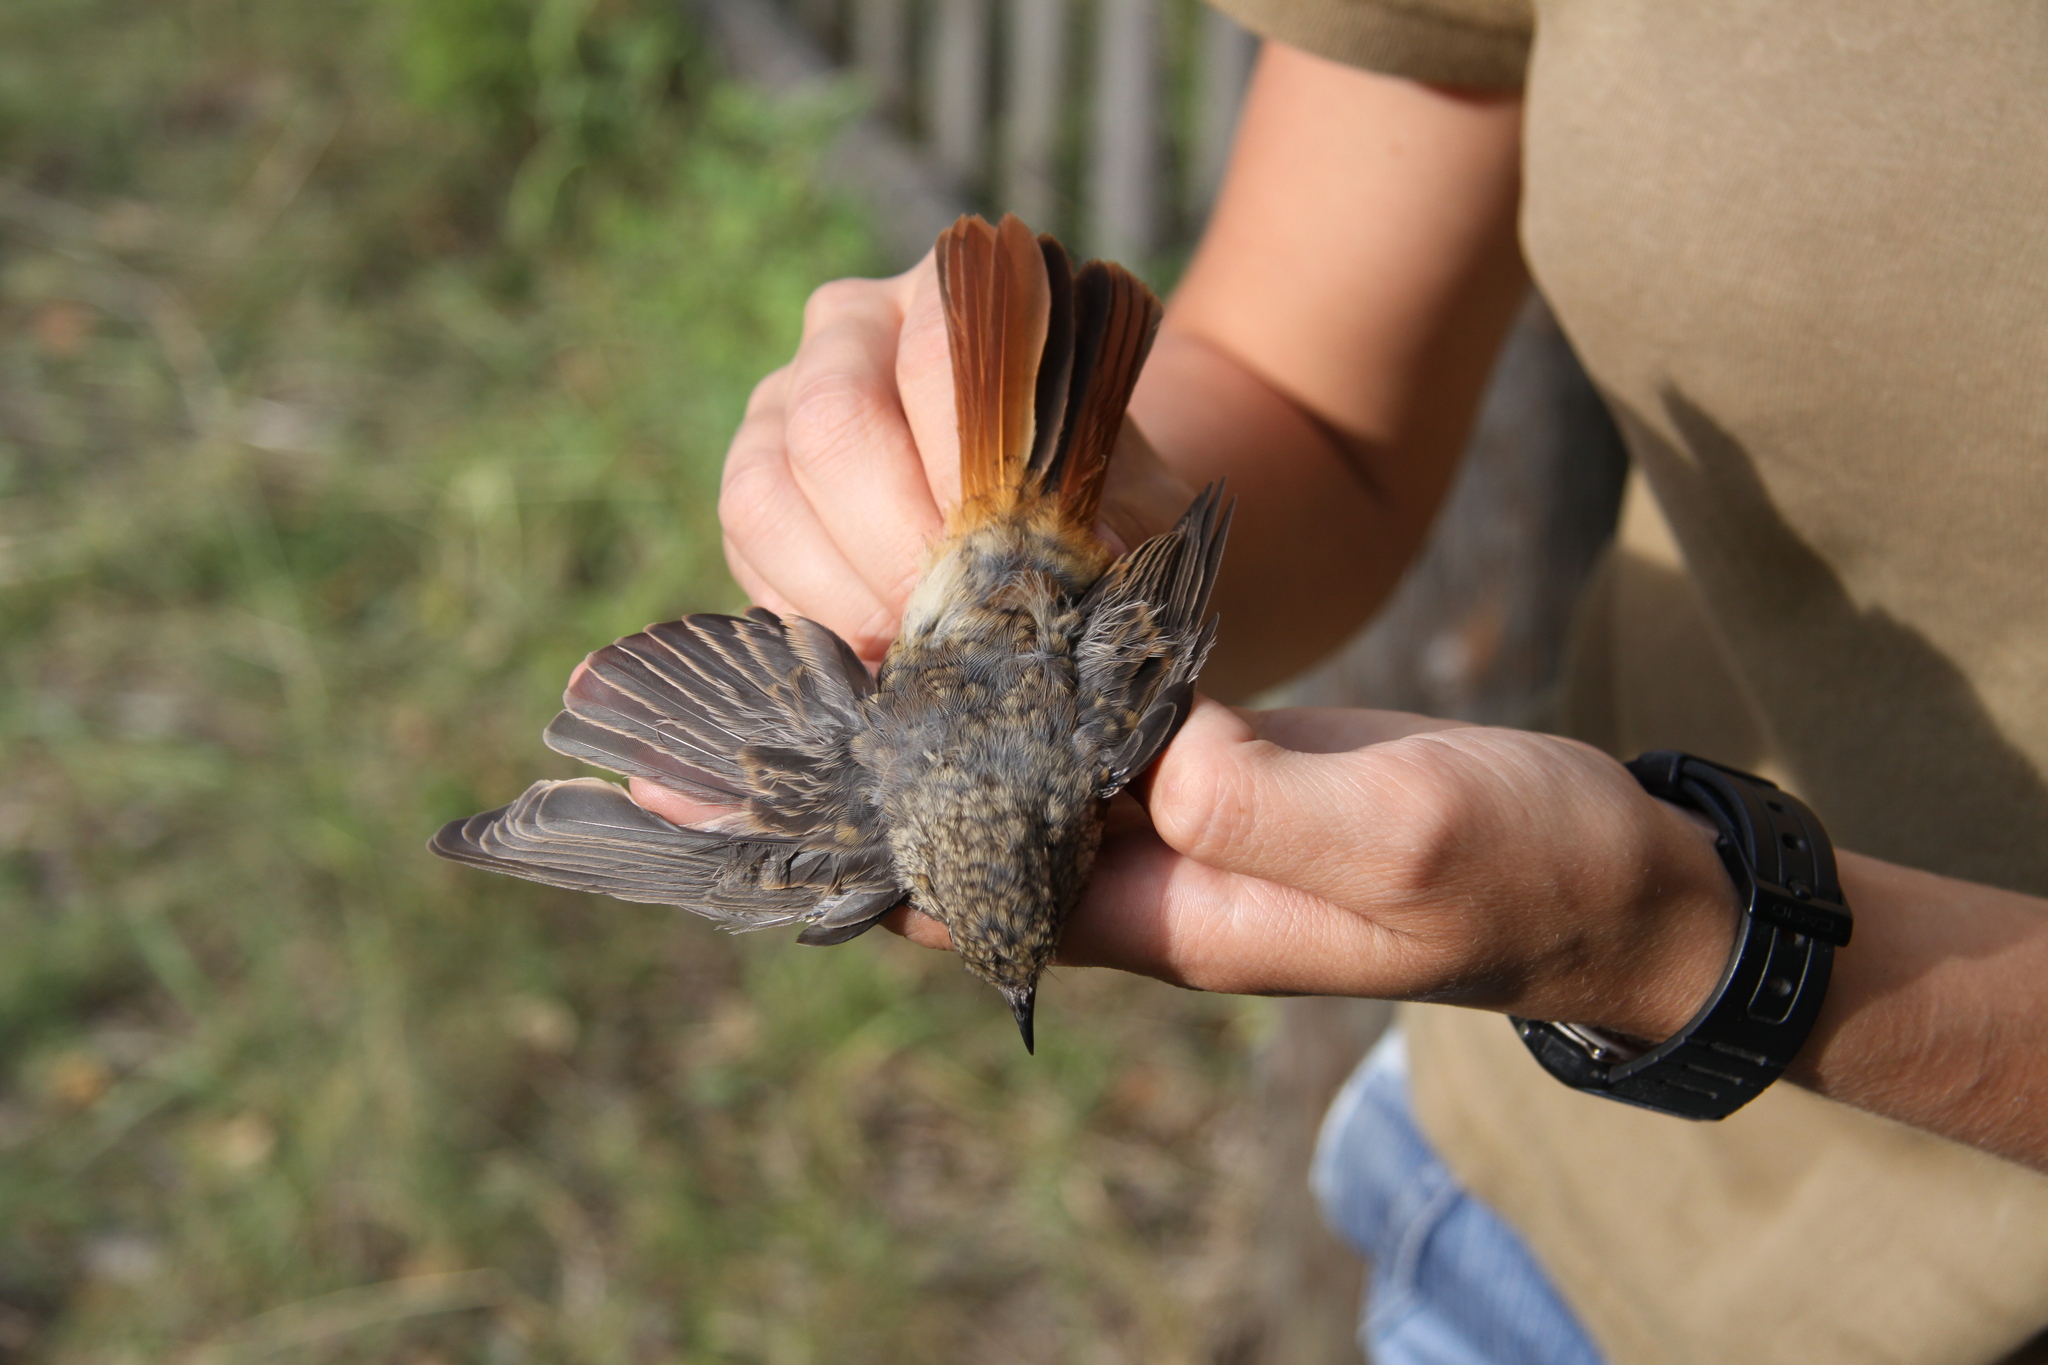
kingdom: Animalia
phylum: Chordata
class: Aves
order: Passeriformes
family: Muscicapidae
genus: Phoenicurus
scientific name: Phoenicurus phoenicurus
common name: Common redstart
